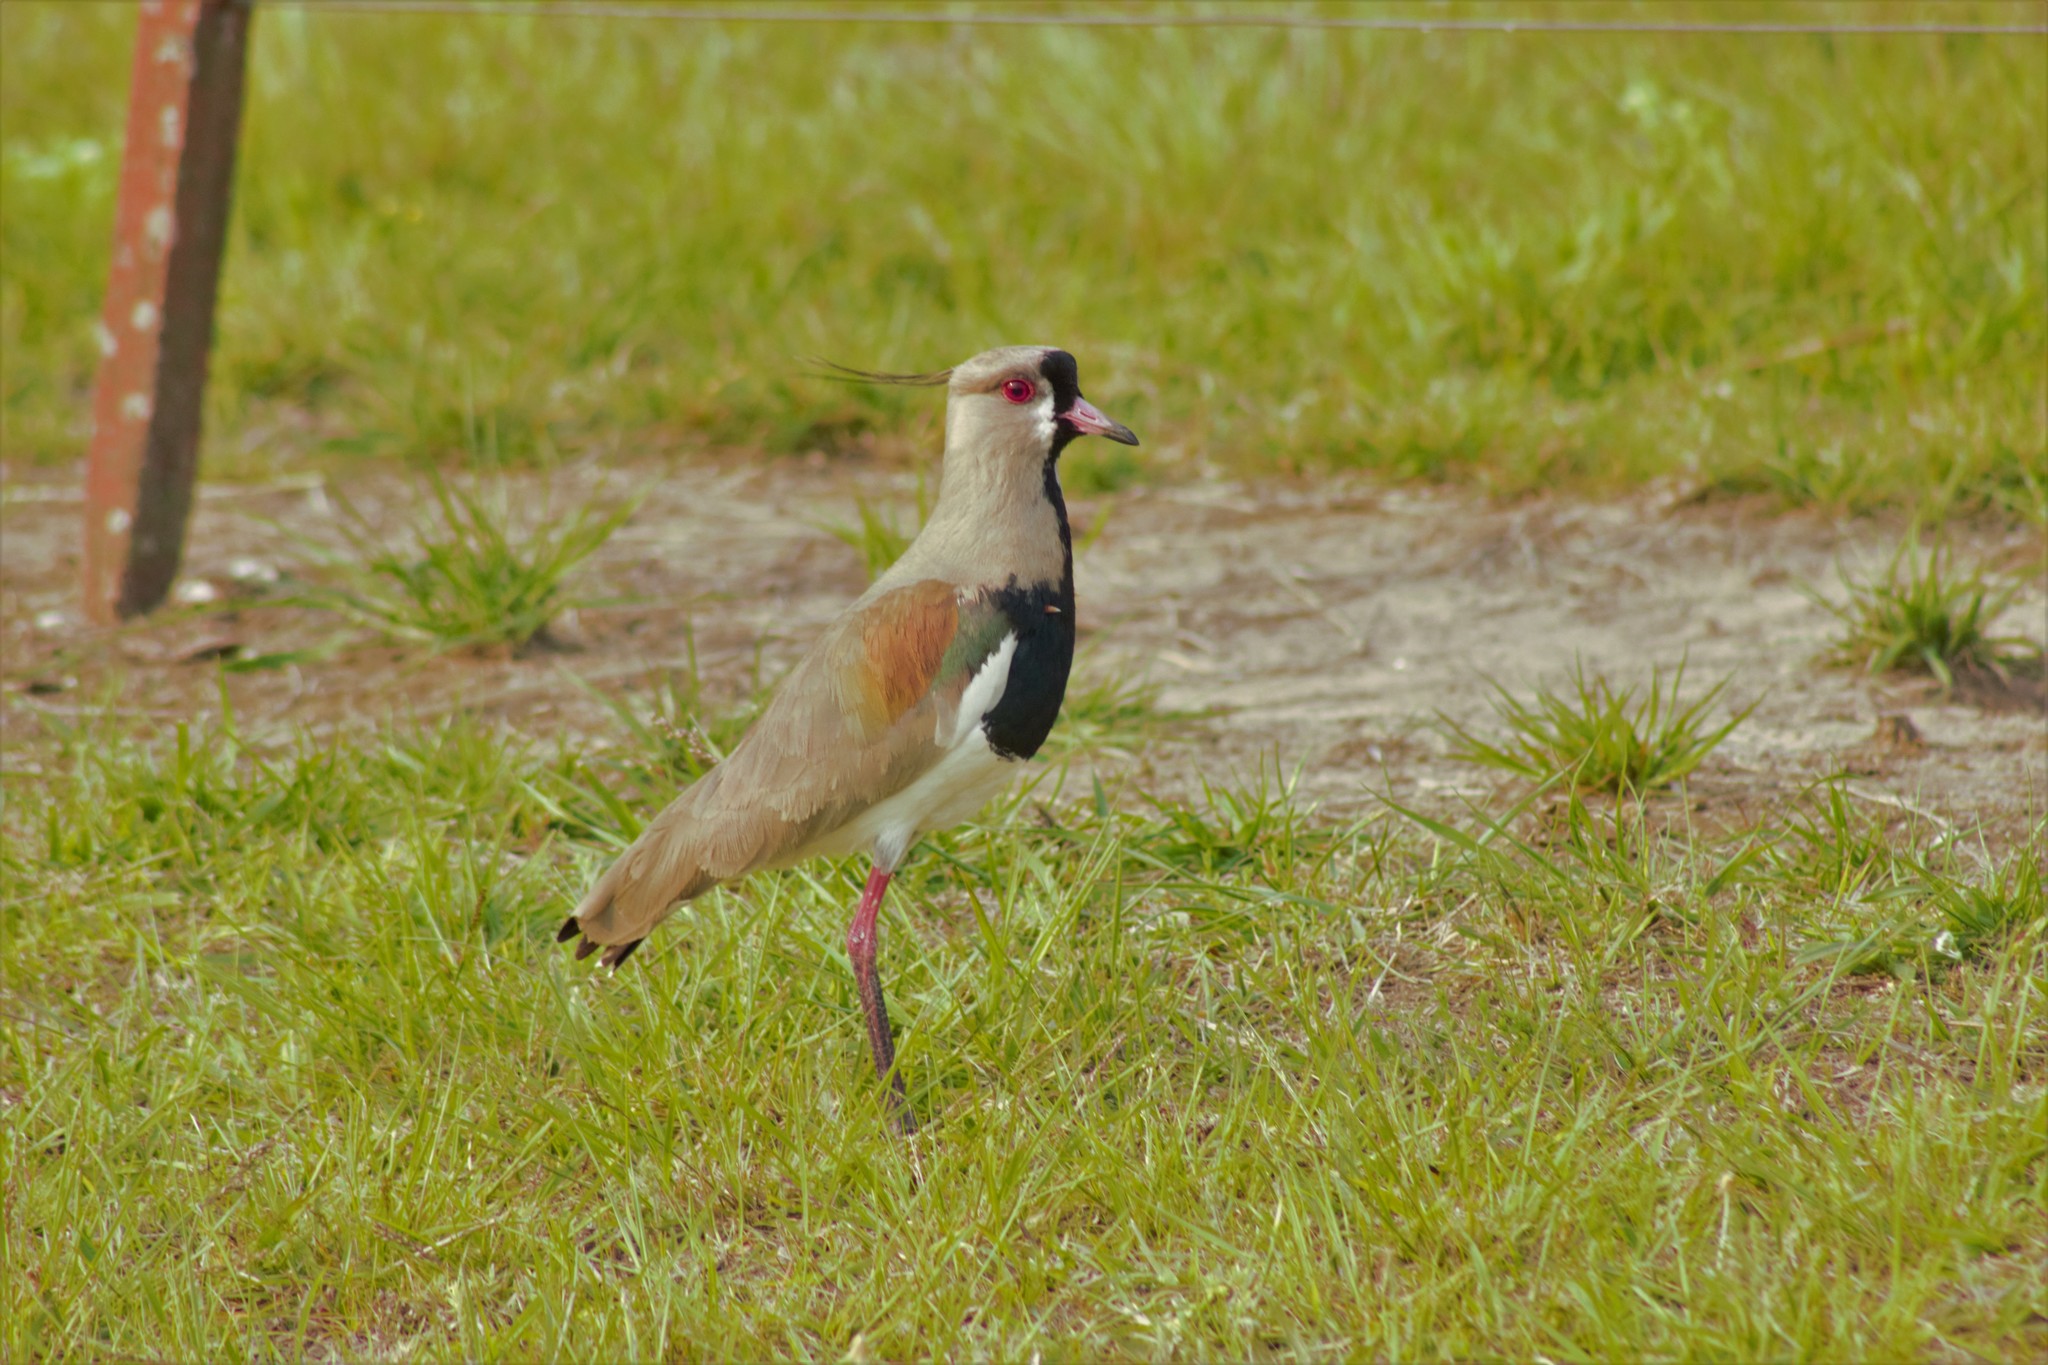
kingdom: Animalia
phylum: Chordata
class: Aves
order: Charadriiformes
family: Charadriidae
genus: Vanellus
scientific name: Vanellus chilensis
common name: Southern lapwing
